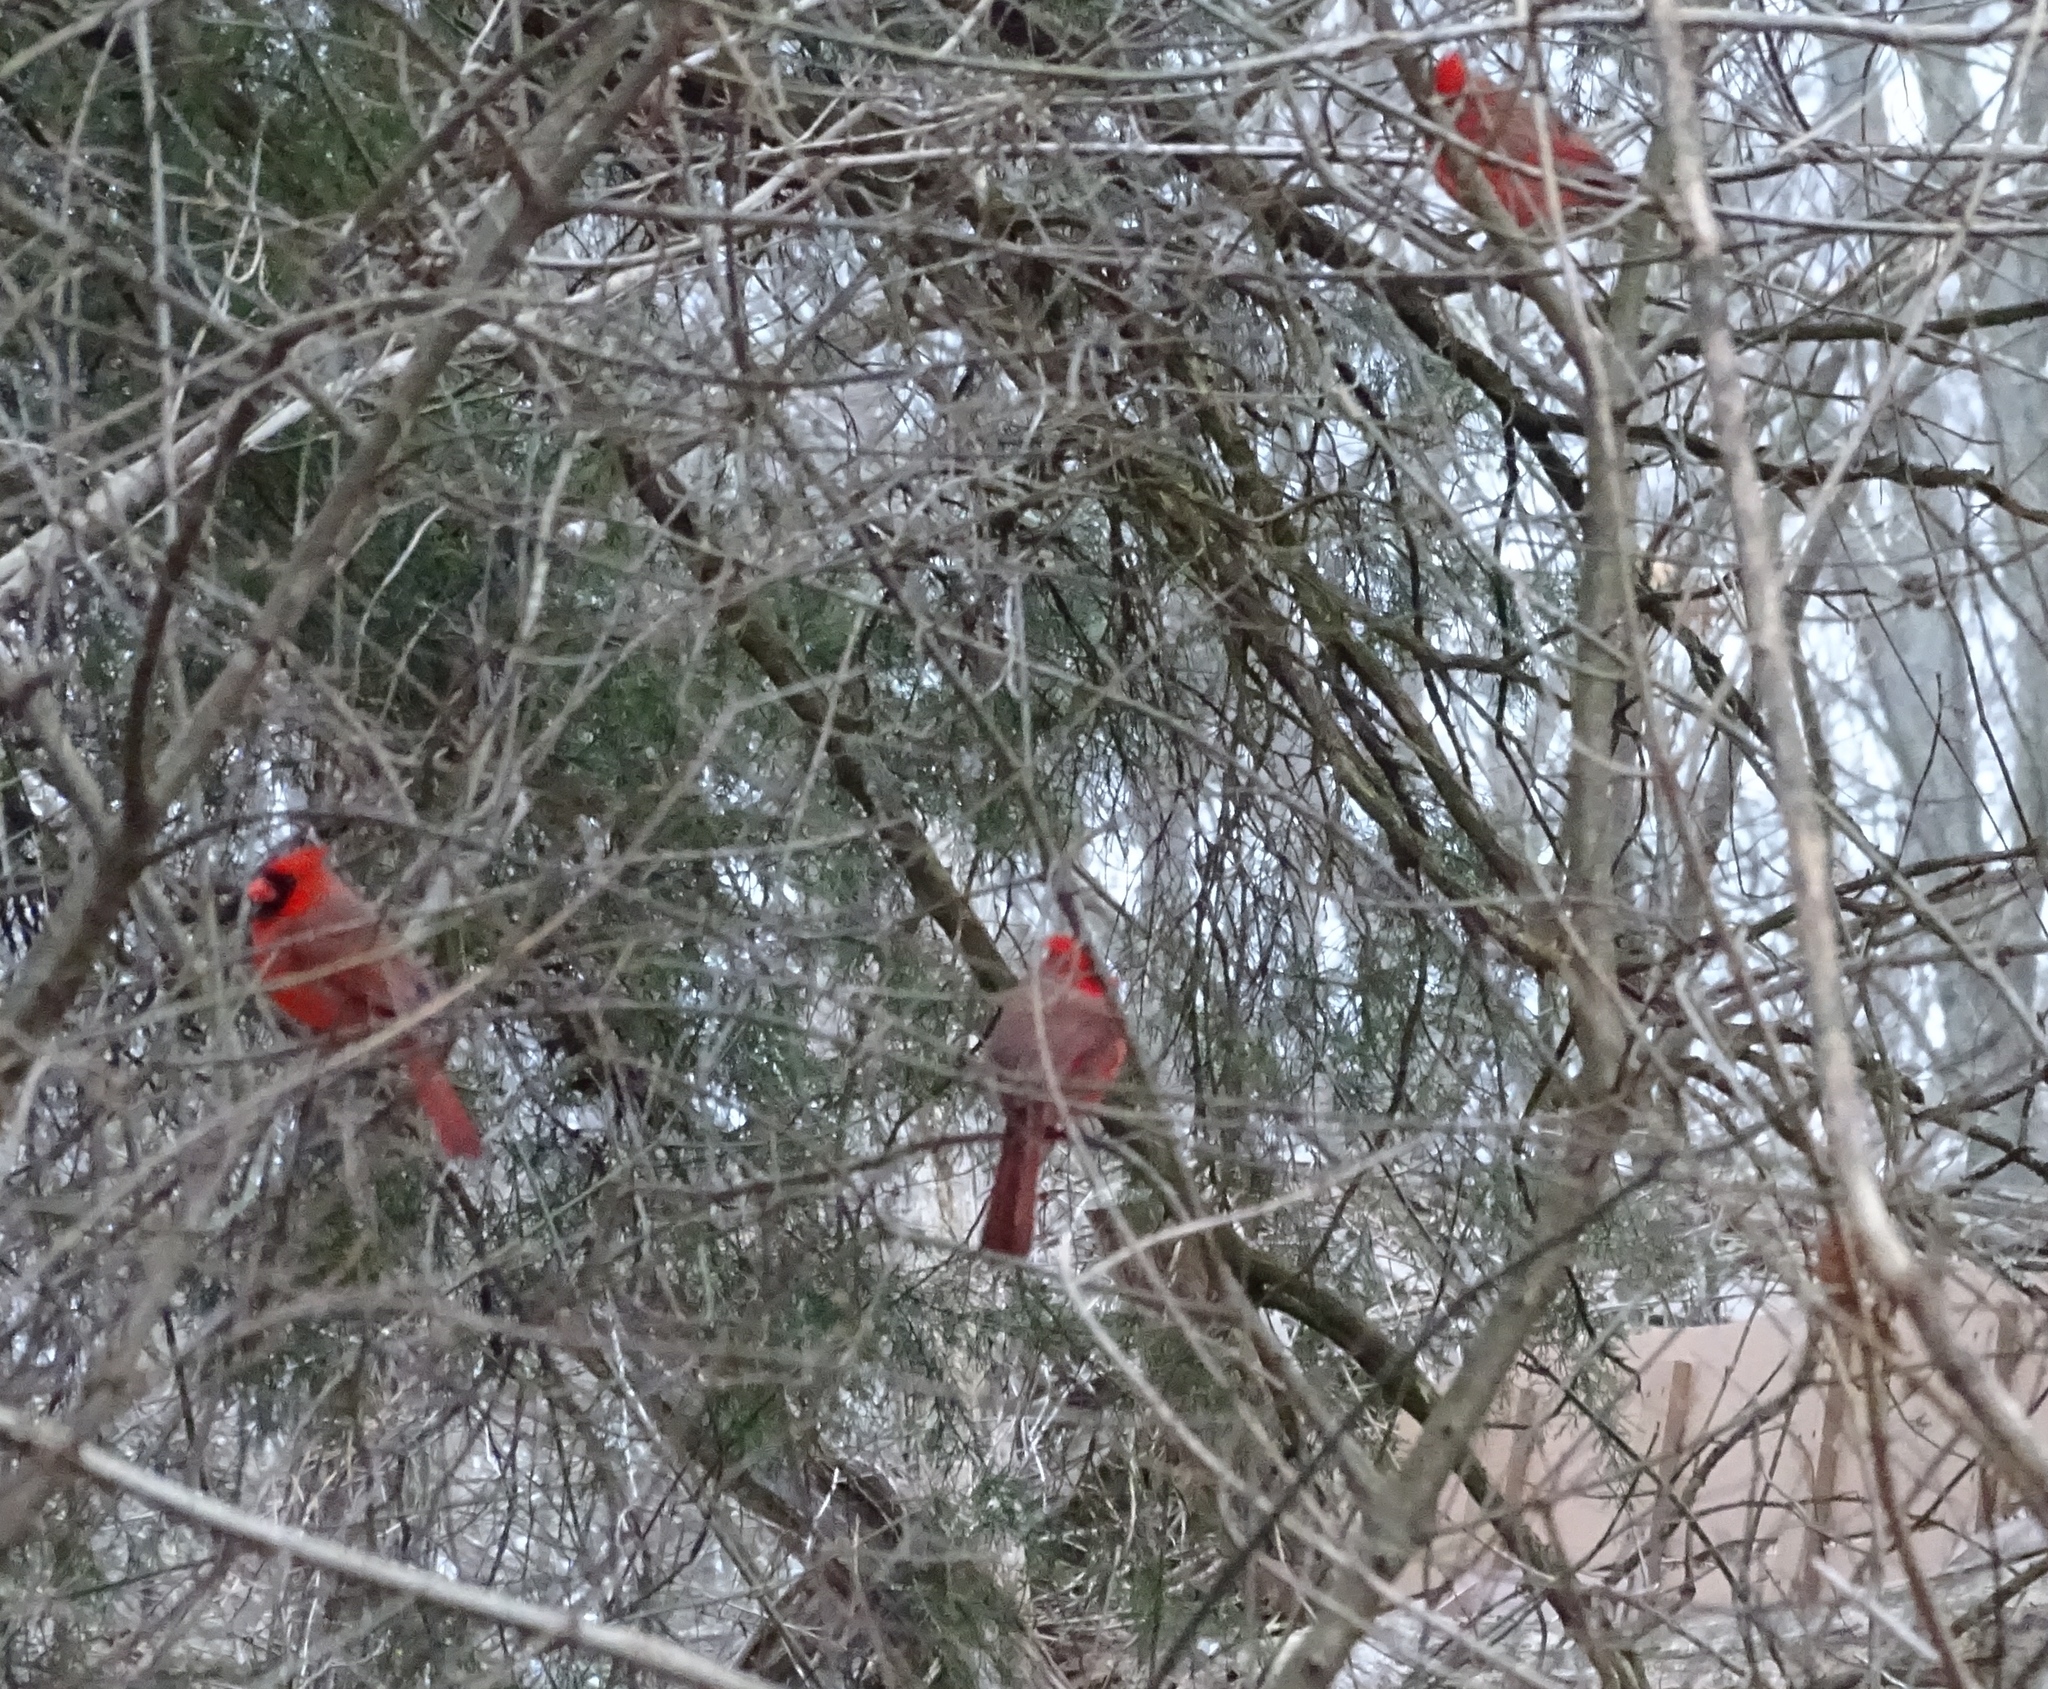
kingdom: Animalia
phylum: Chordata
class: Aves
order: Passeriformes
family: Cardinalidae
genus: Cardinalis
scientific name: Cardinalis cardinalis
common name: Northern cardinal
